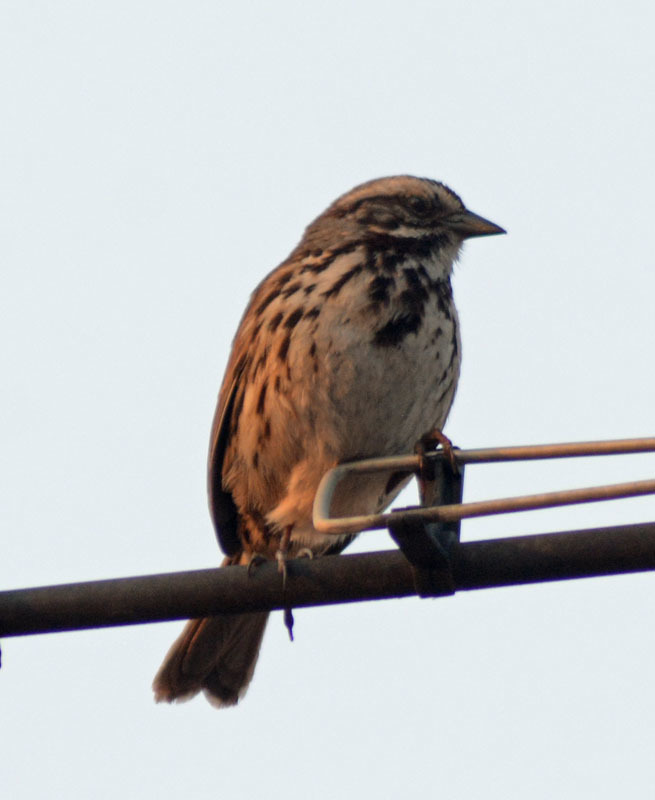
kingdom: Animalia
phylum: Chordata
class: Aves
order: Passeriformes
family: Passerellidae
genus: Melospiza
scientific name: Melospiza melodia
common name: Song sparrow
